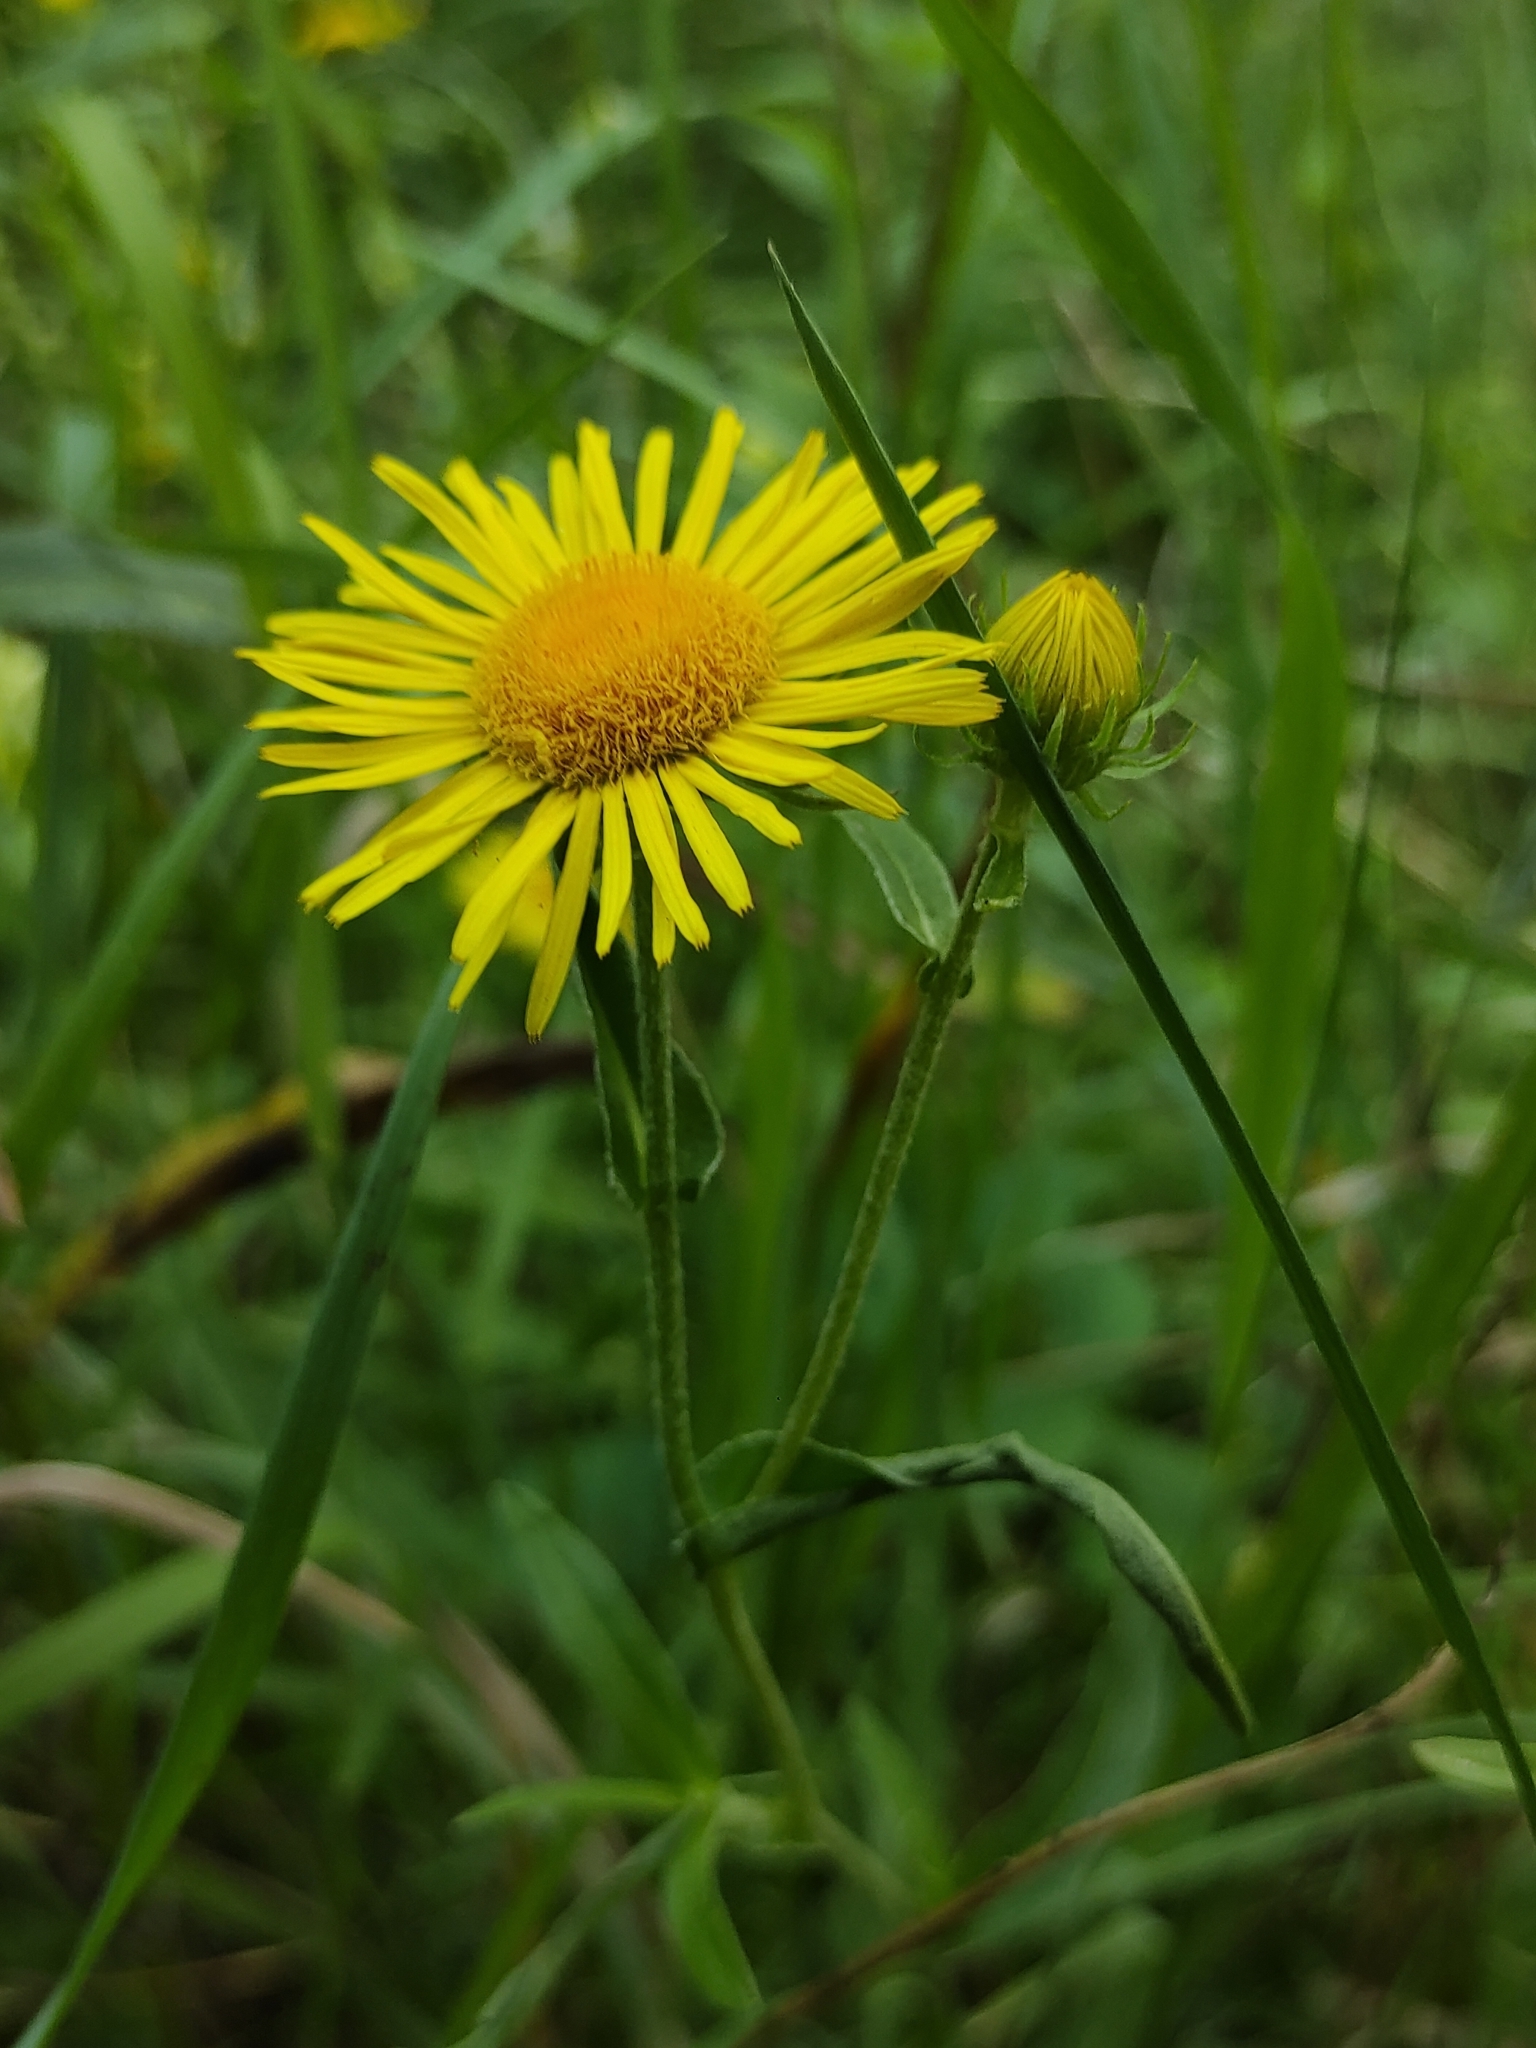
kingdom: Plantae
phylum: Tracheophyta
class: Magnoliopsida
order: Asterales
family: Asteraceae
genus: Pentanema
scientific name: Pentanema britannicum
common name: British elecampane
